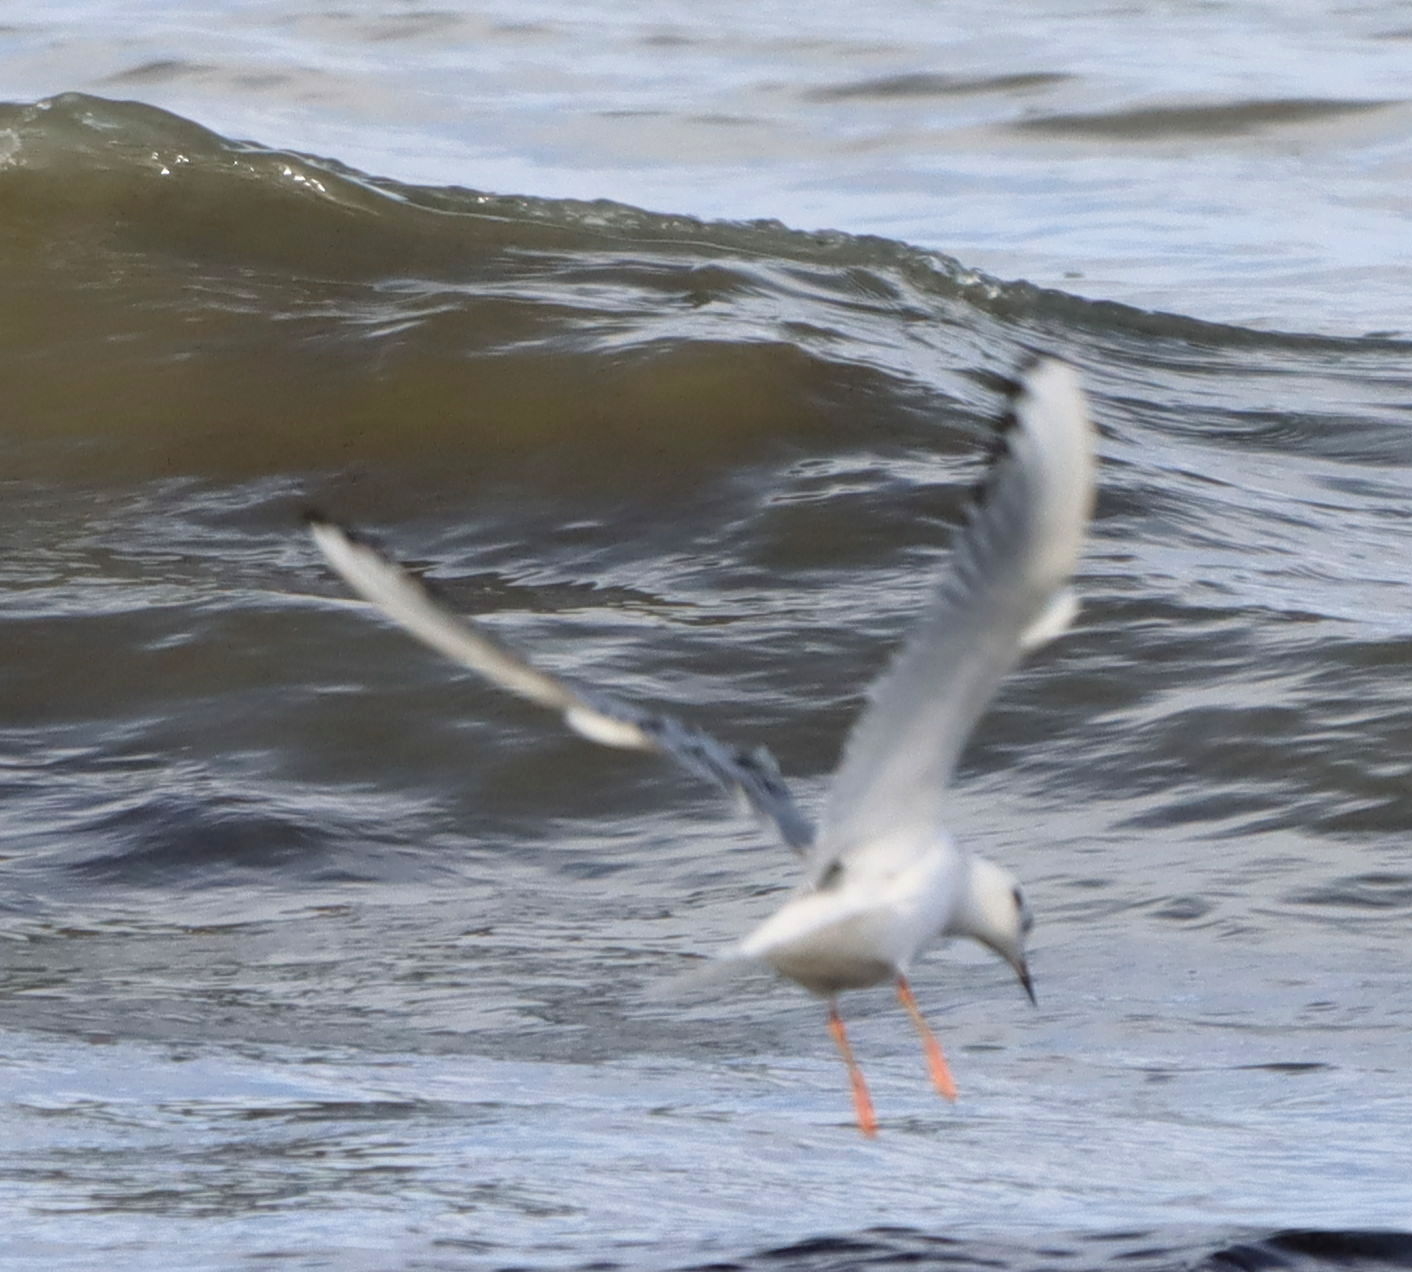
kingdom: Animalia
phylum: Chordata
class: Aves
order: Charadriiformes
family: Laridae
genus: Chroicocephalus
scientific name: Chroicocephalus philadelphia
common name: Bonaparte's gull
